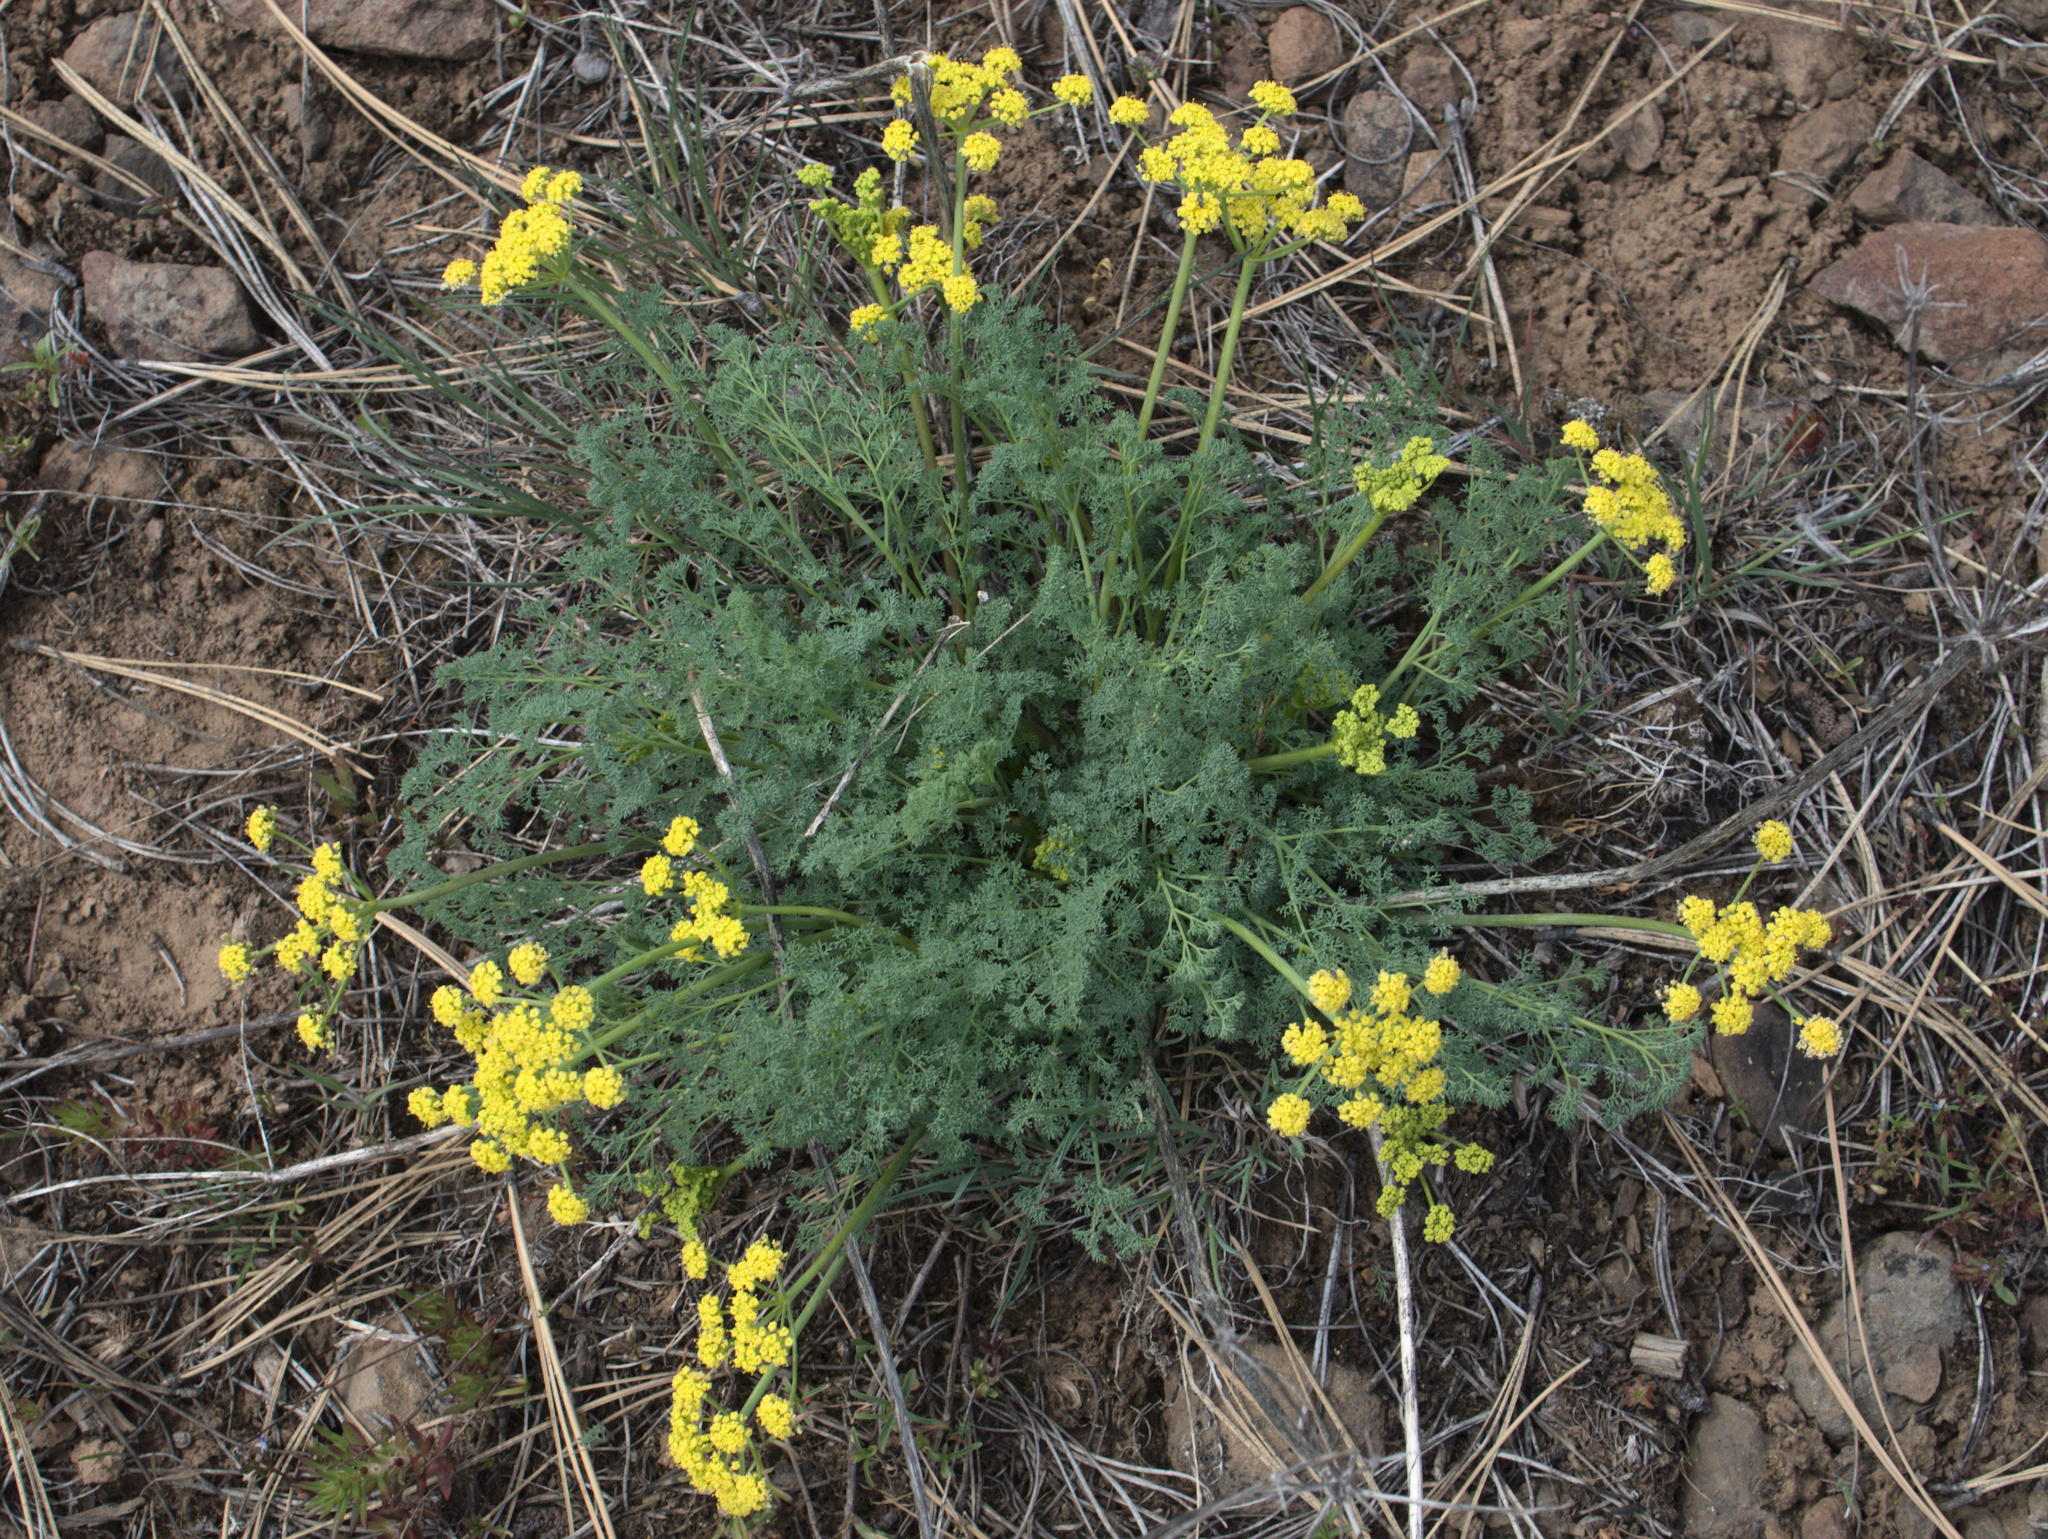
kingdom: Plantae
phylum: Tracheophyta
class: Magnoliopsida
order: Apiales
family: Apiaceae
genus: Lomatium
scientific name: Lomatium papilioniferum
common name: Butterfly lomatium
